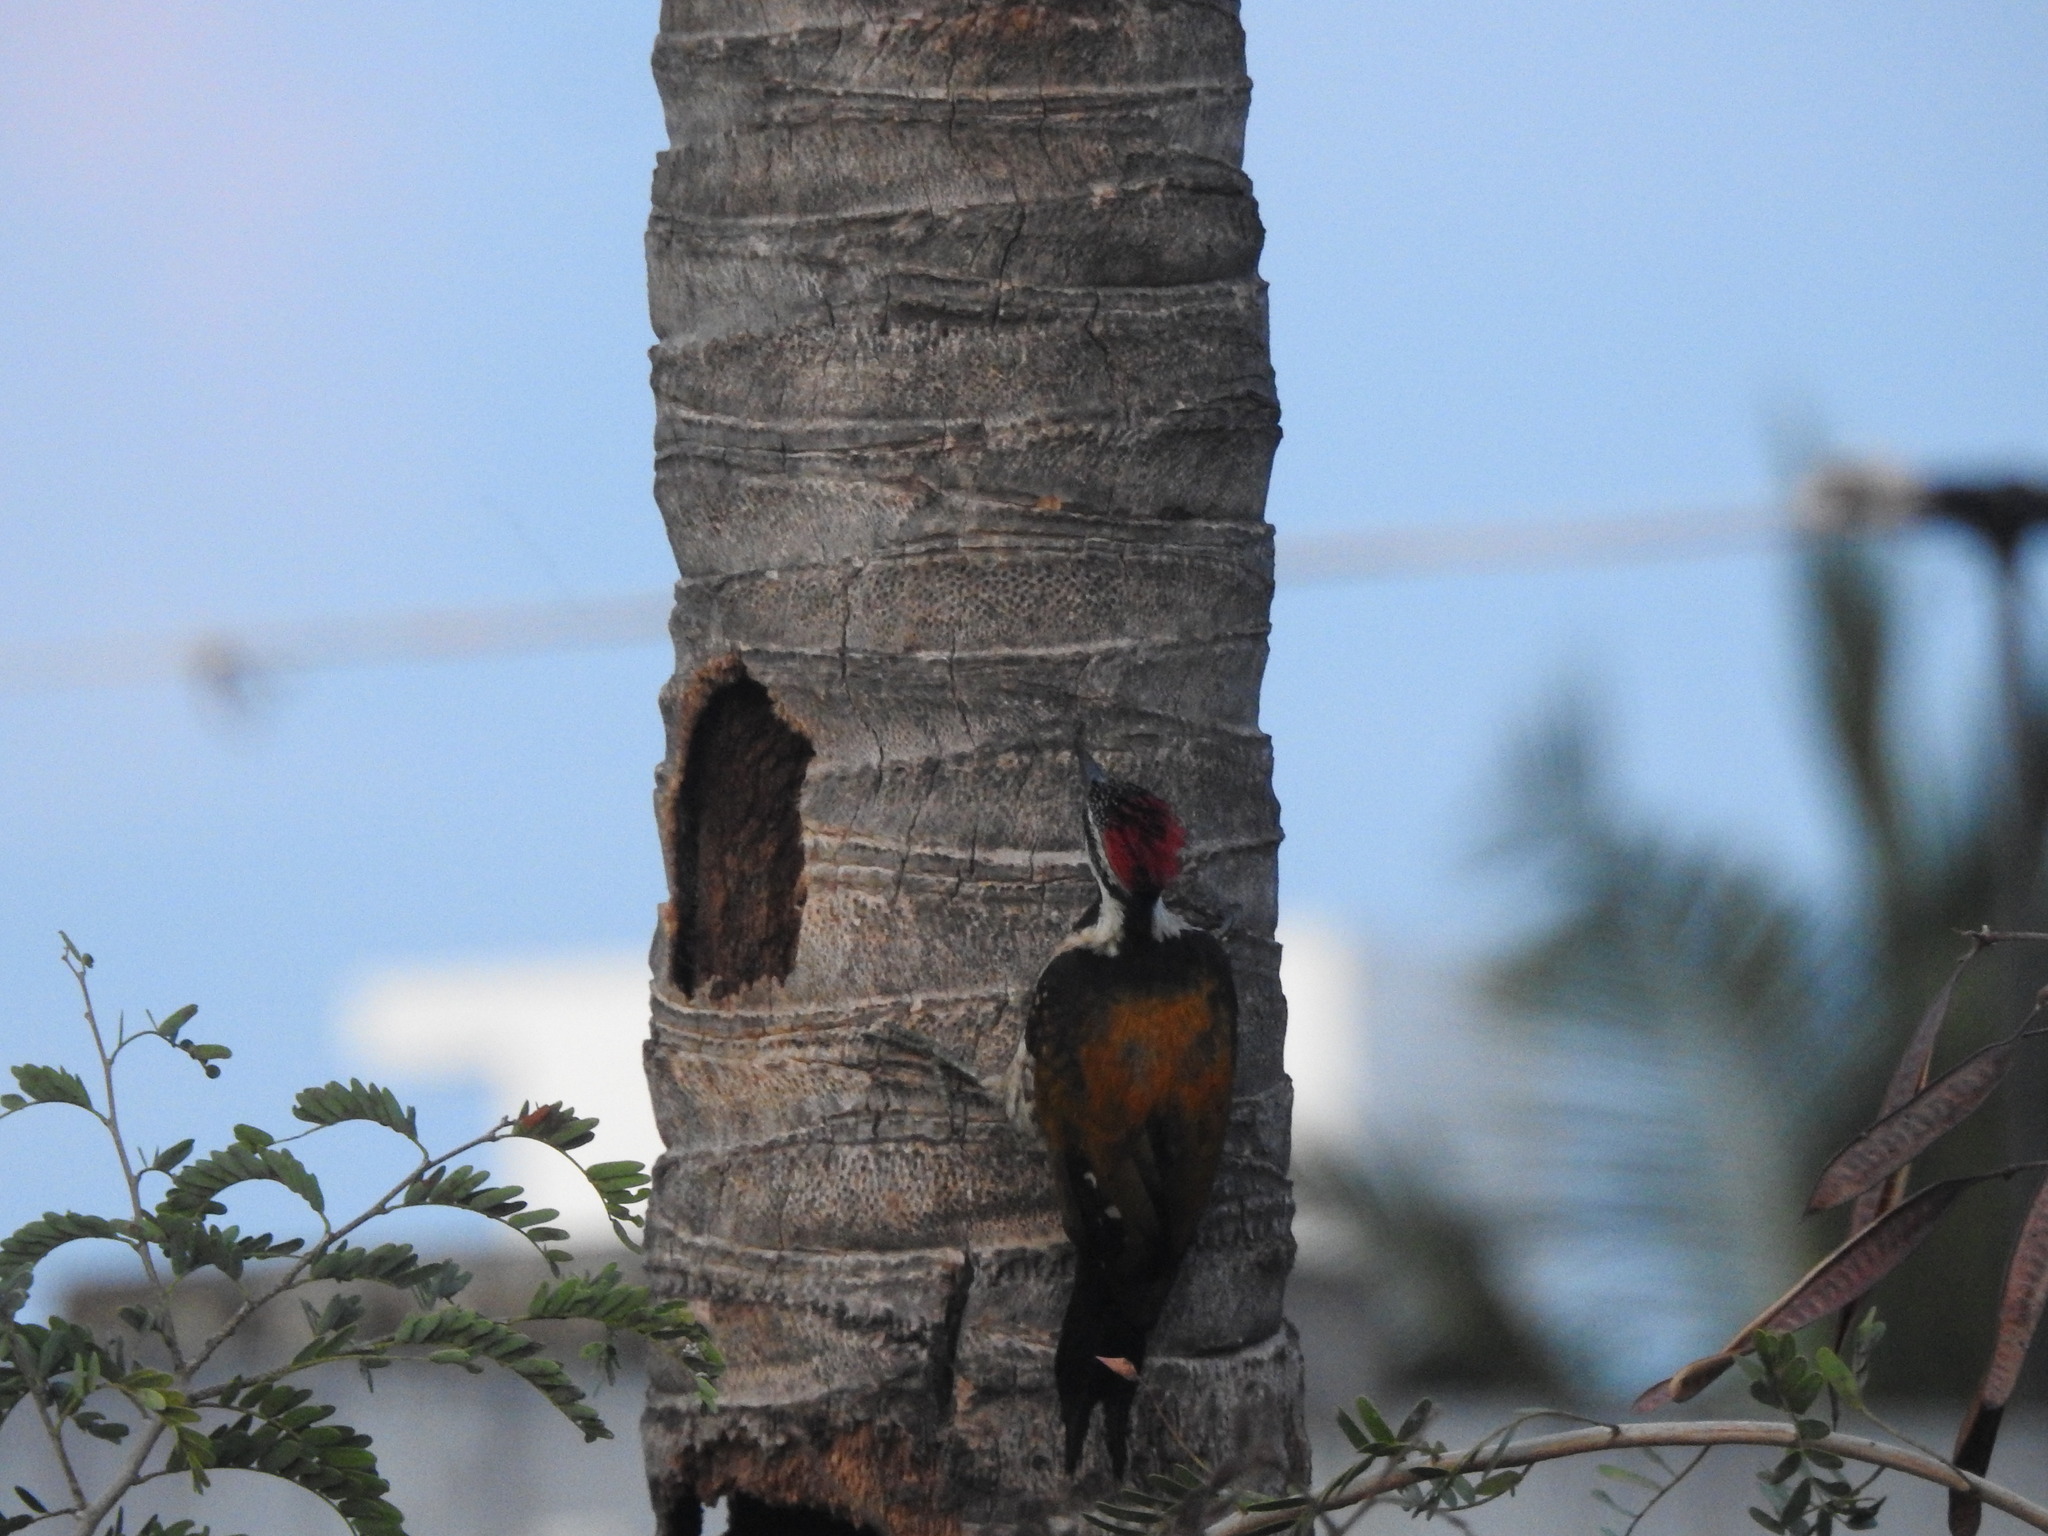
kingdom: Animalia
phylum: Chordata
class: Aves
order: Piciformes
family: Picidae
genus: Dinopium
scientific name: Dinopium benghalense
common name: Black-rumped flameback
